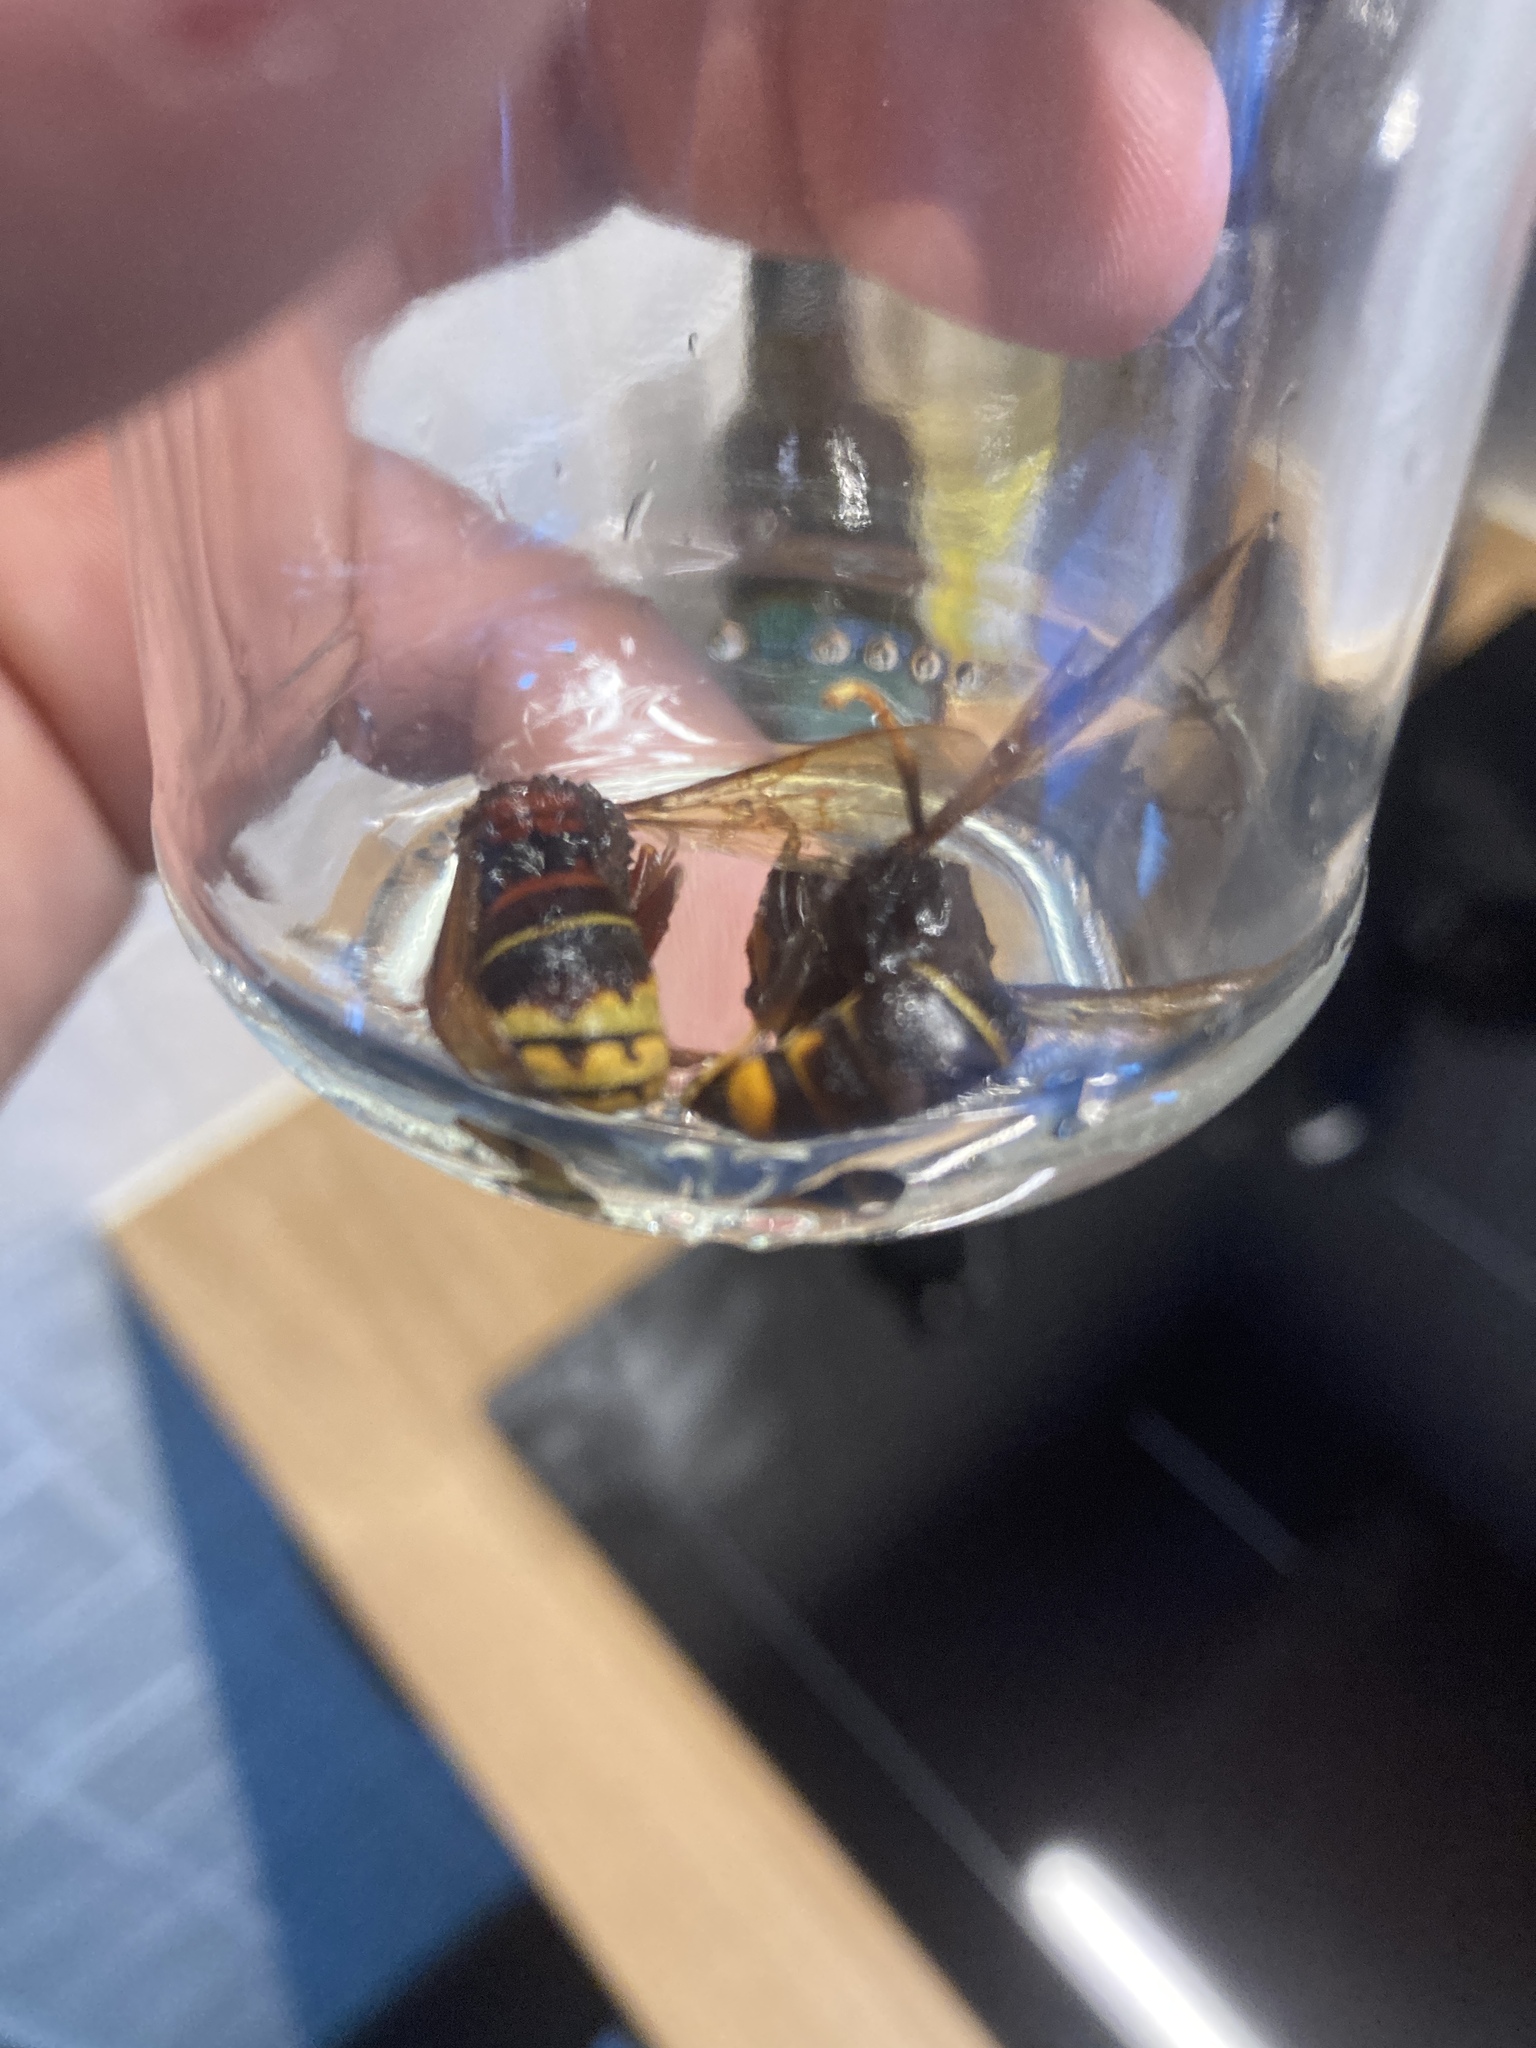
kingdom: Animalia
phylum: Arthropoda
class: Insecta
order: Hymenoptera
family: Vespidae
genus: Vespa
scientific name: Vespa velutina
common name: Asian hornet
